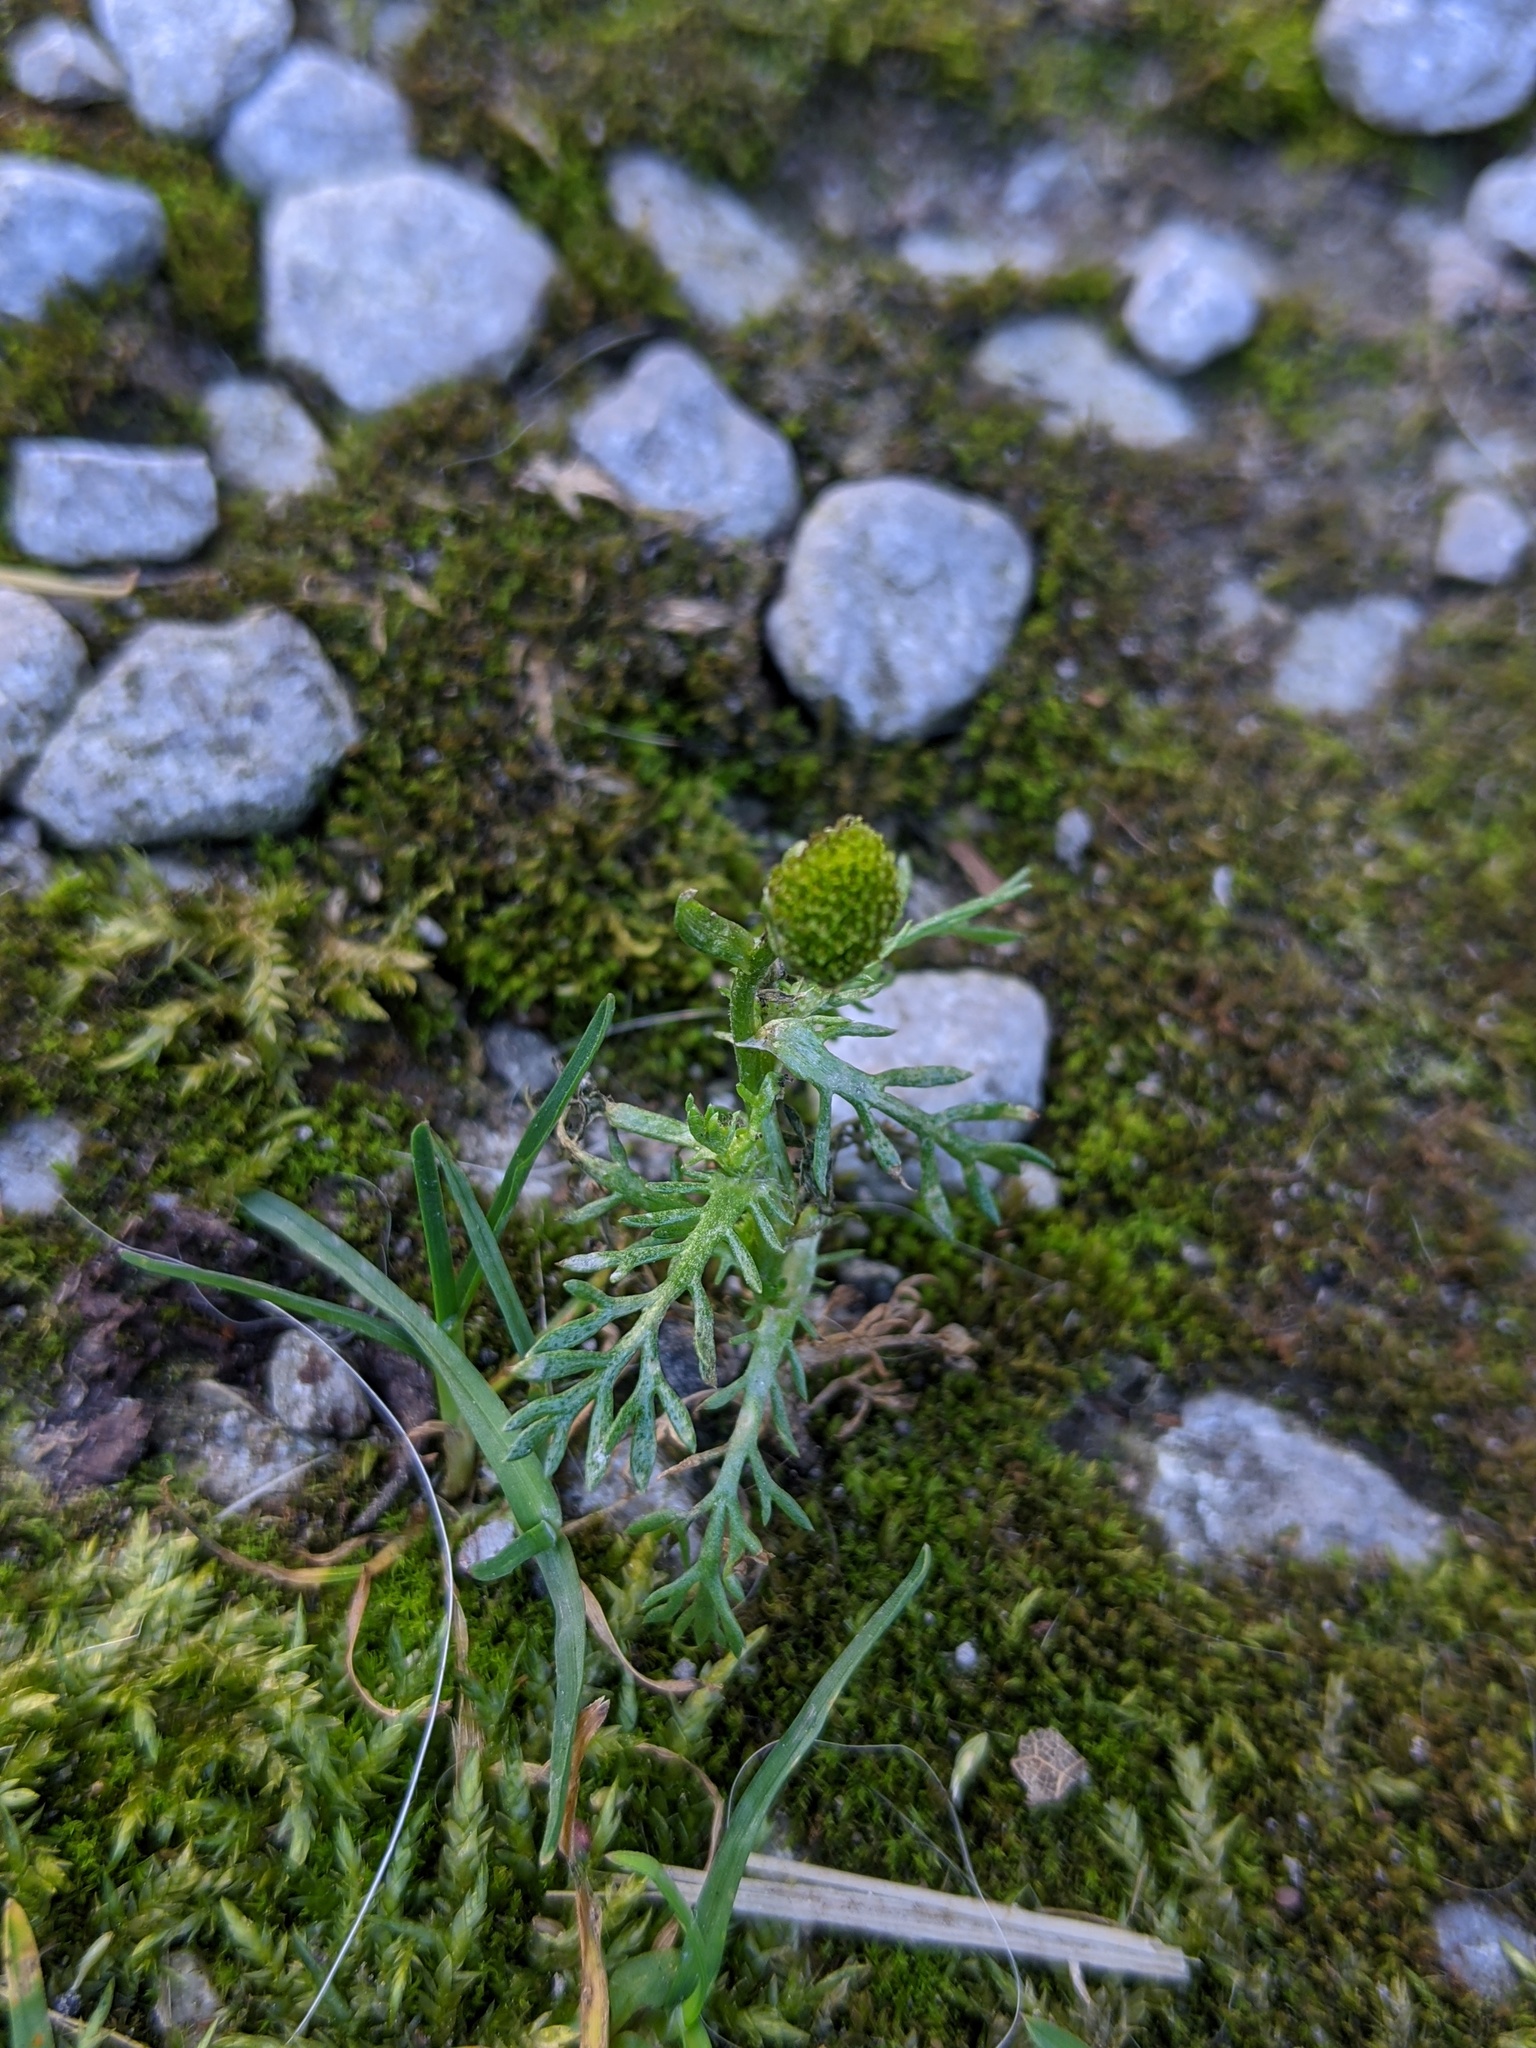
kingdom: Plantae
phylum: Tracheophyta
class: Magnoliopsida
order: Asterales
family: Asteraceae
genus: Matricaria
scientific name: Matricaria discoidea
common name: Disc mayweed
